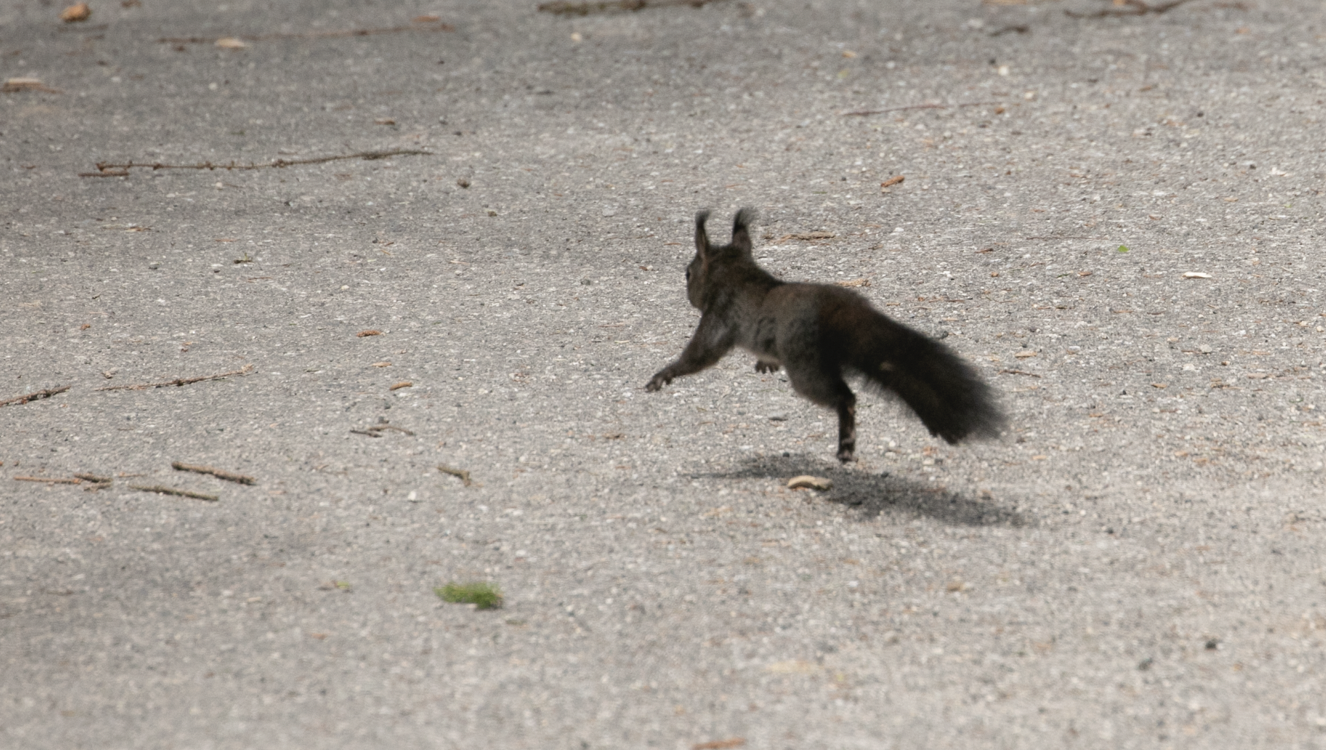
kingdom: Animalia
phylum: Chordata
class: Mammalia
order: Rodentia
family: Sciuridae
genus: Sciurus
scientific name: Sciurus vulgaris
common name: Eurasian red squirrel
